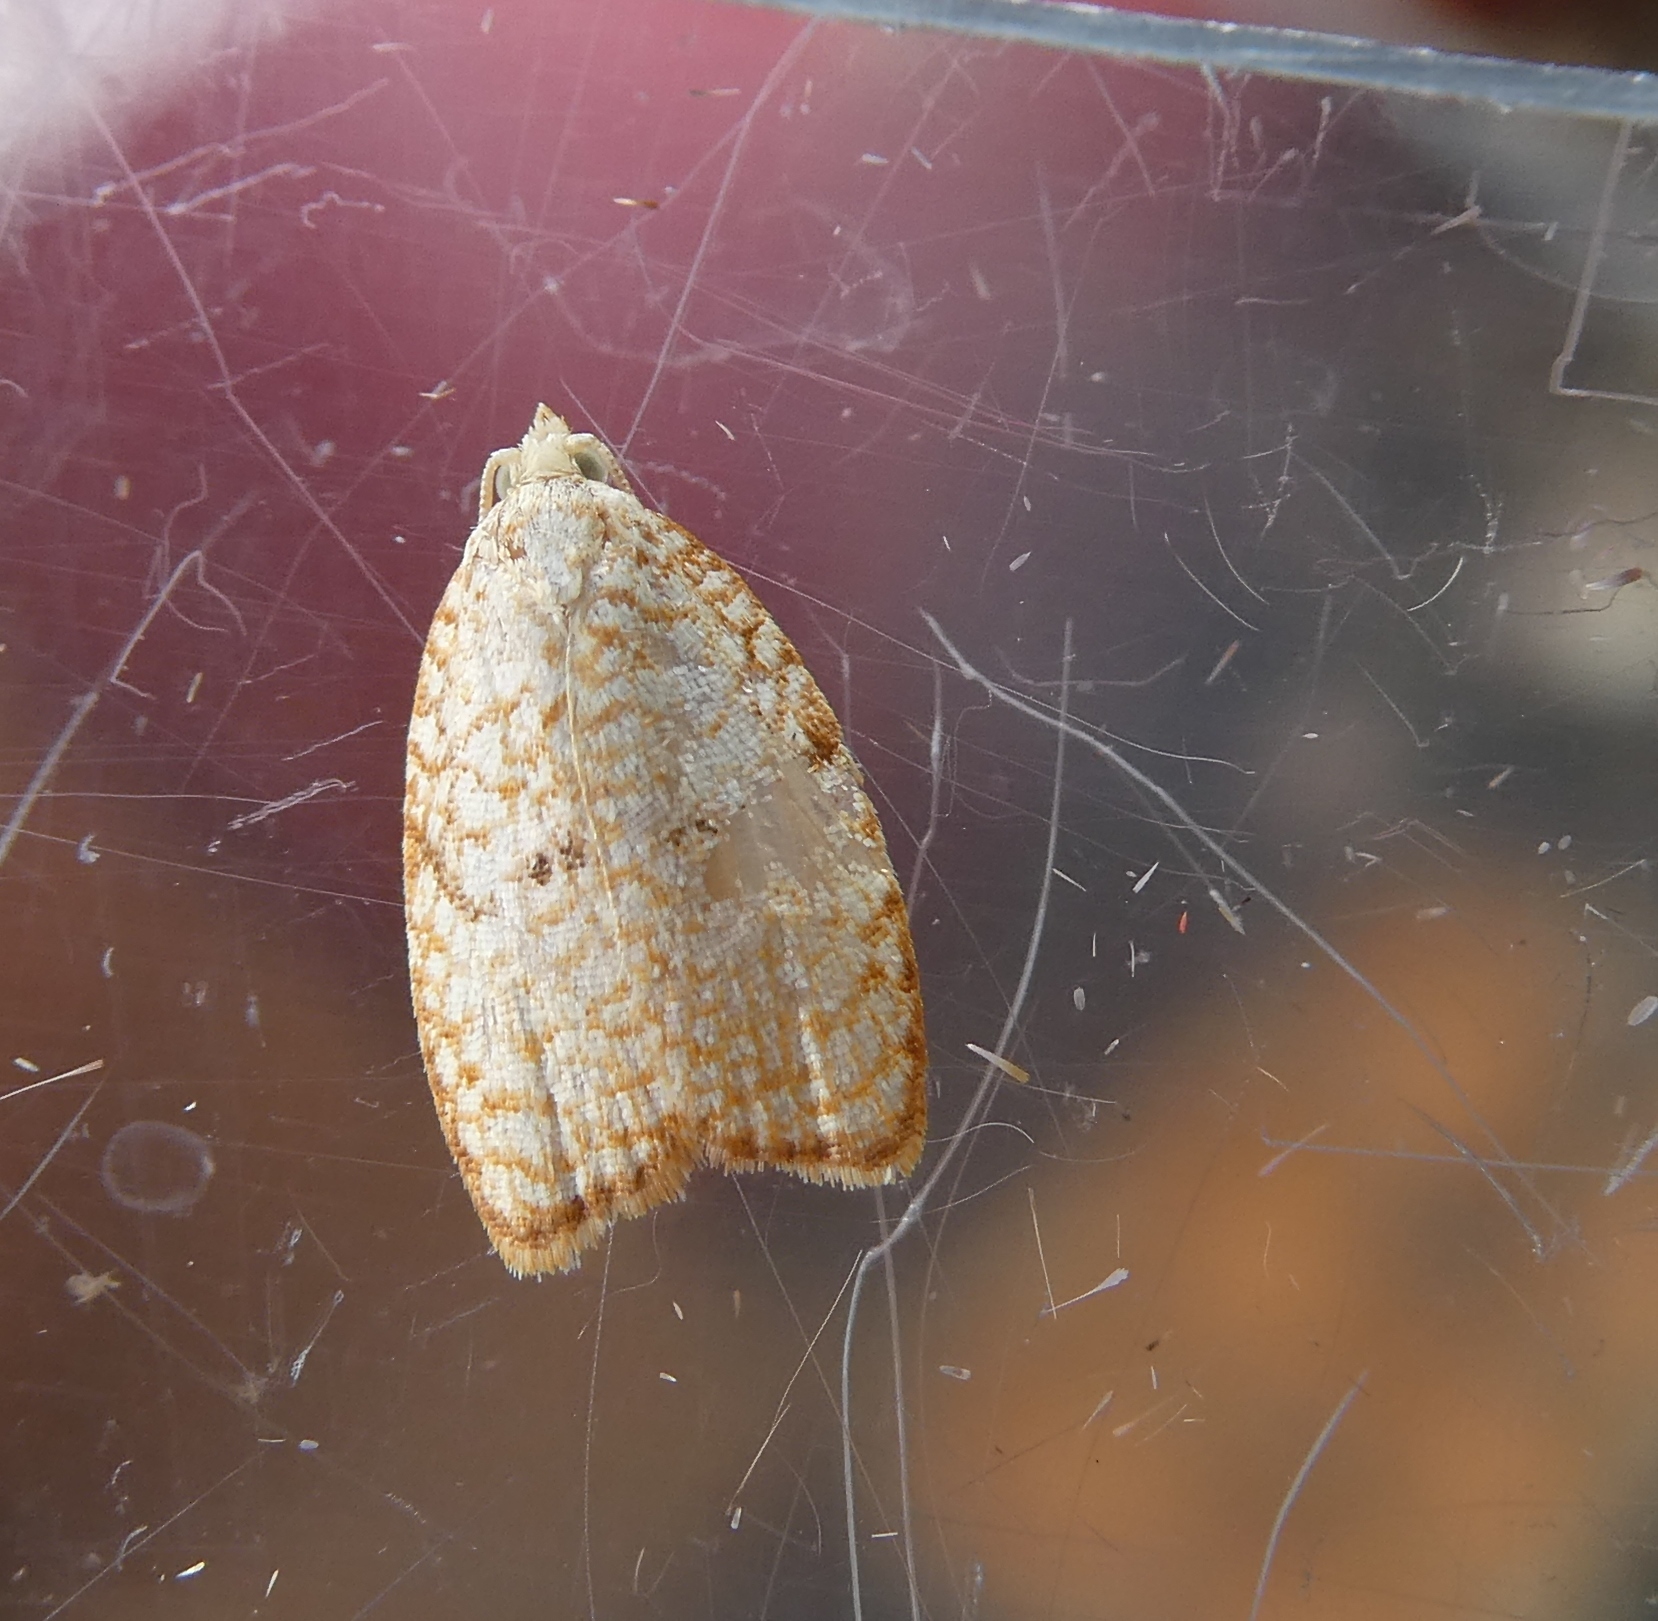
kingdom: Animalia
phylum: Arthropoda
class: Insecta
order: Lepidoptera
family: Tortricidae
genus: Acleris
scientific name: Acleris forsskaleana
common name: Maple button
